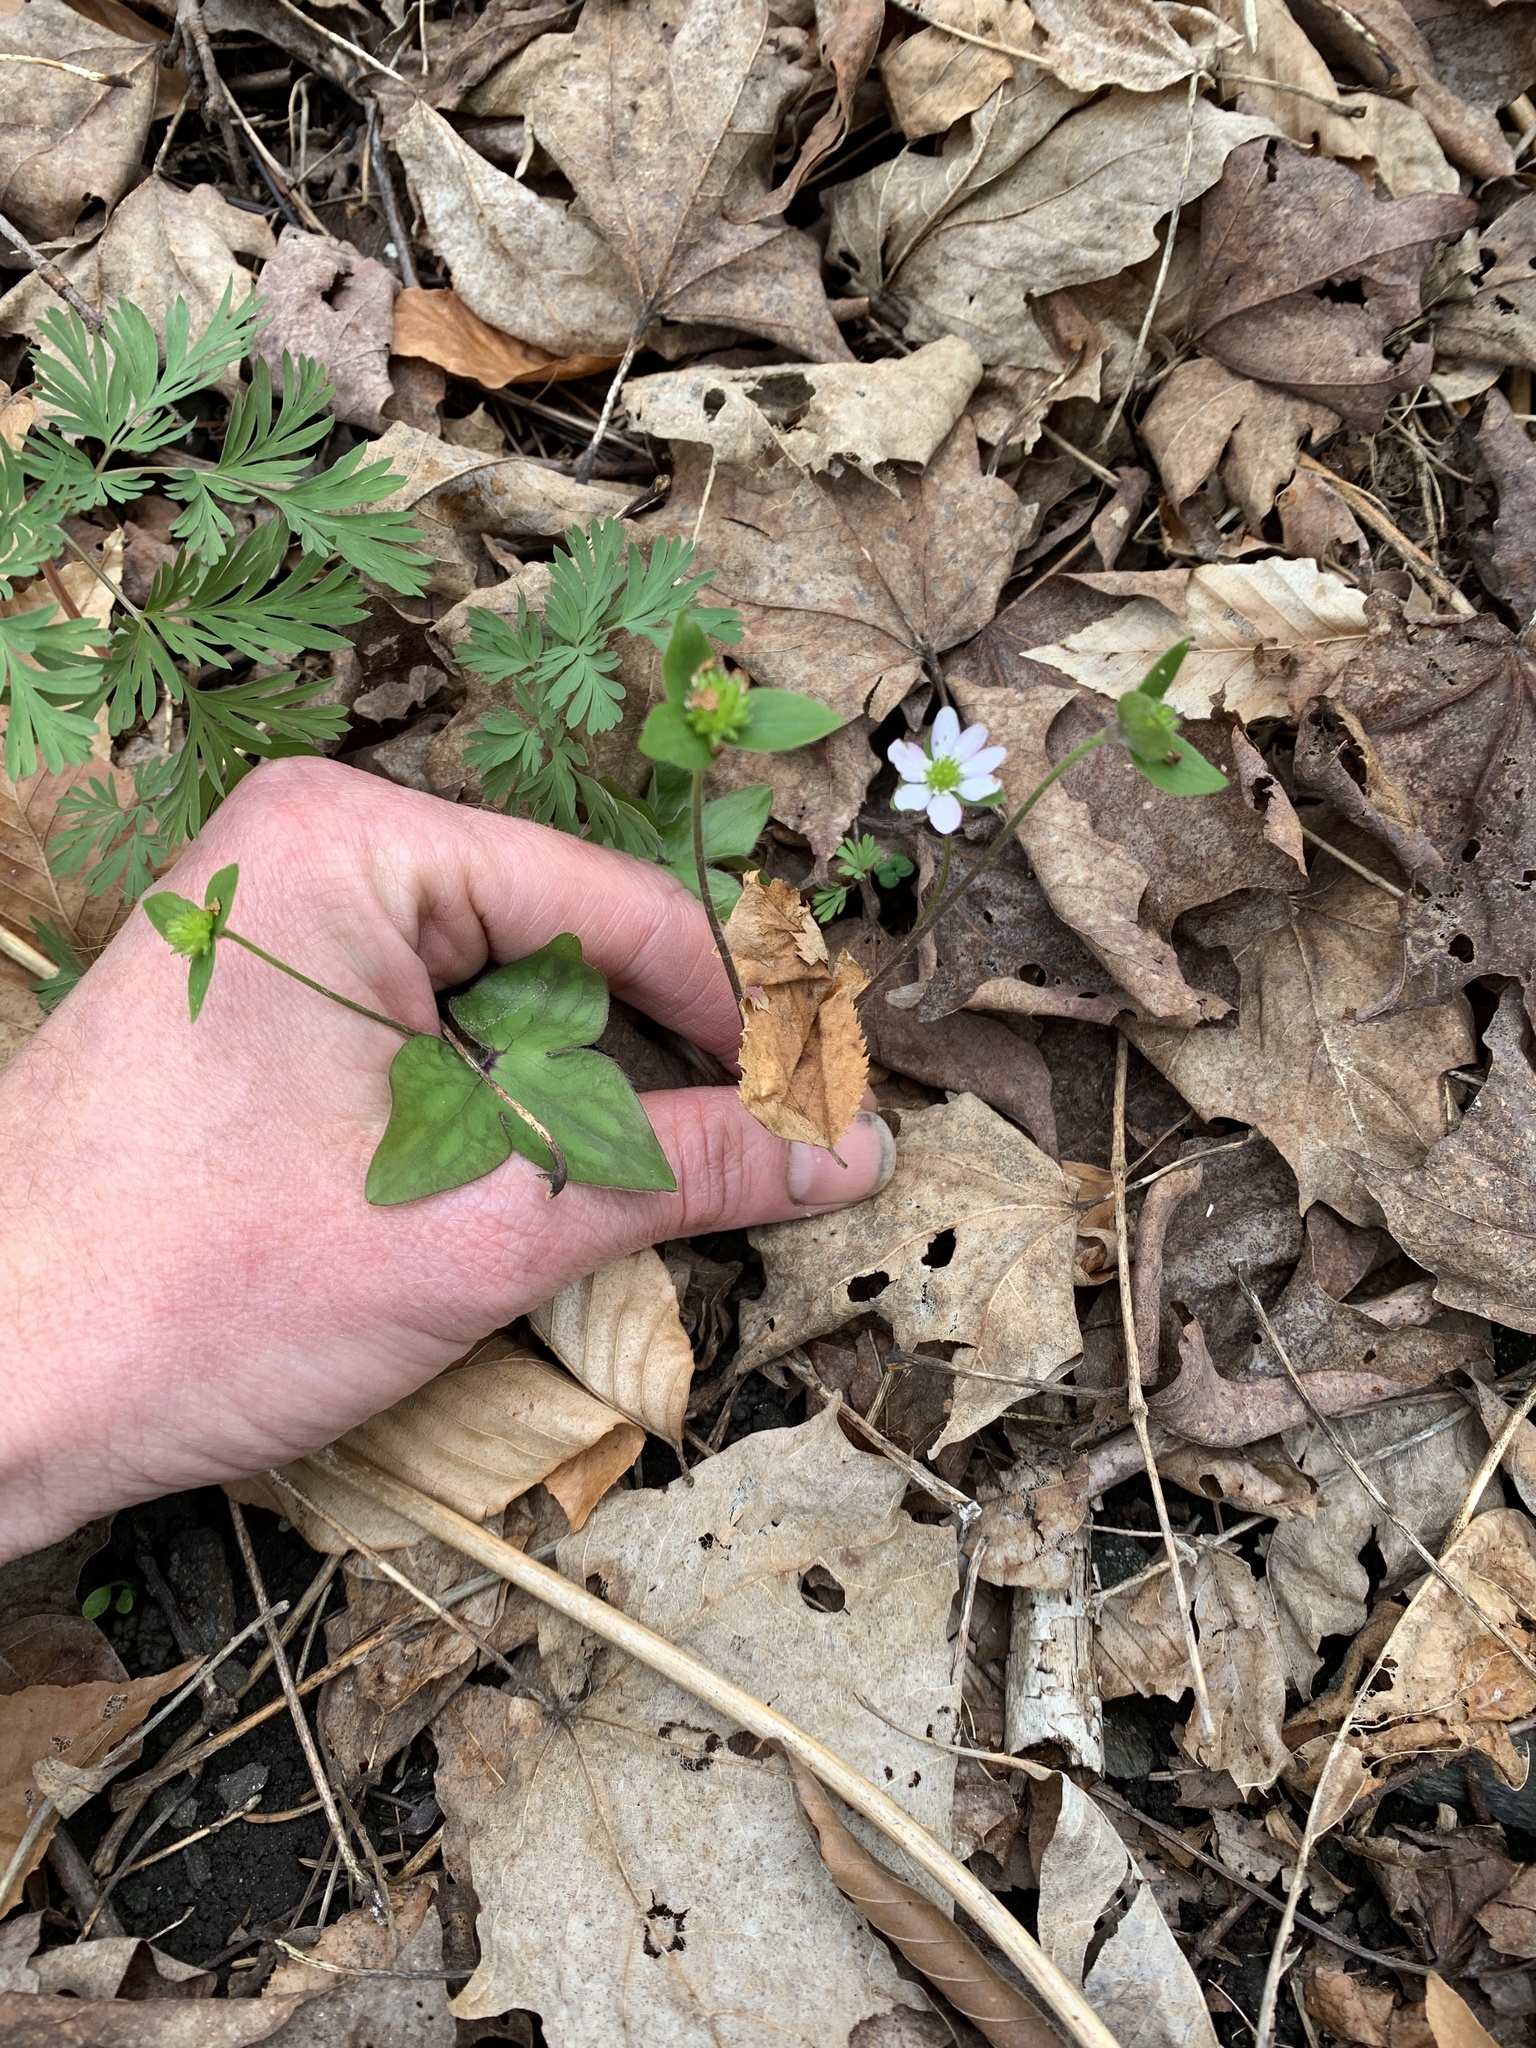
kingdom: Plantae
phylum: Tracheophyta
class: Magnoliopsida
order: Ranunculales
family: Ranunculaceae
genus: Hepatica
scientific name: Hepatica acutiloba
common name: Sharp-lobed hepatica
